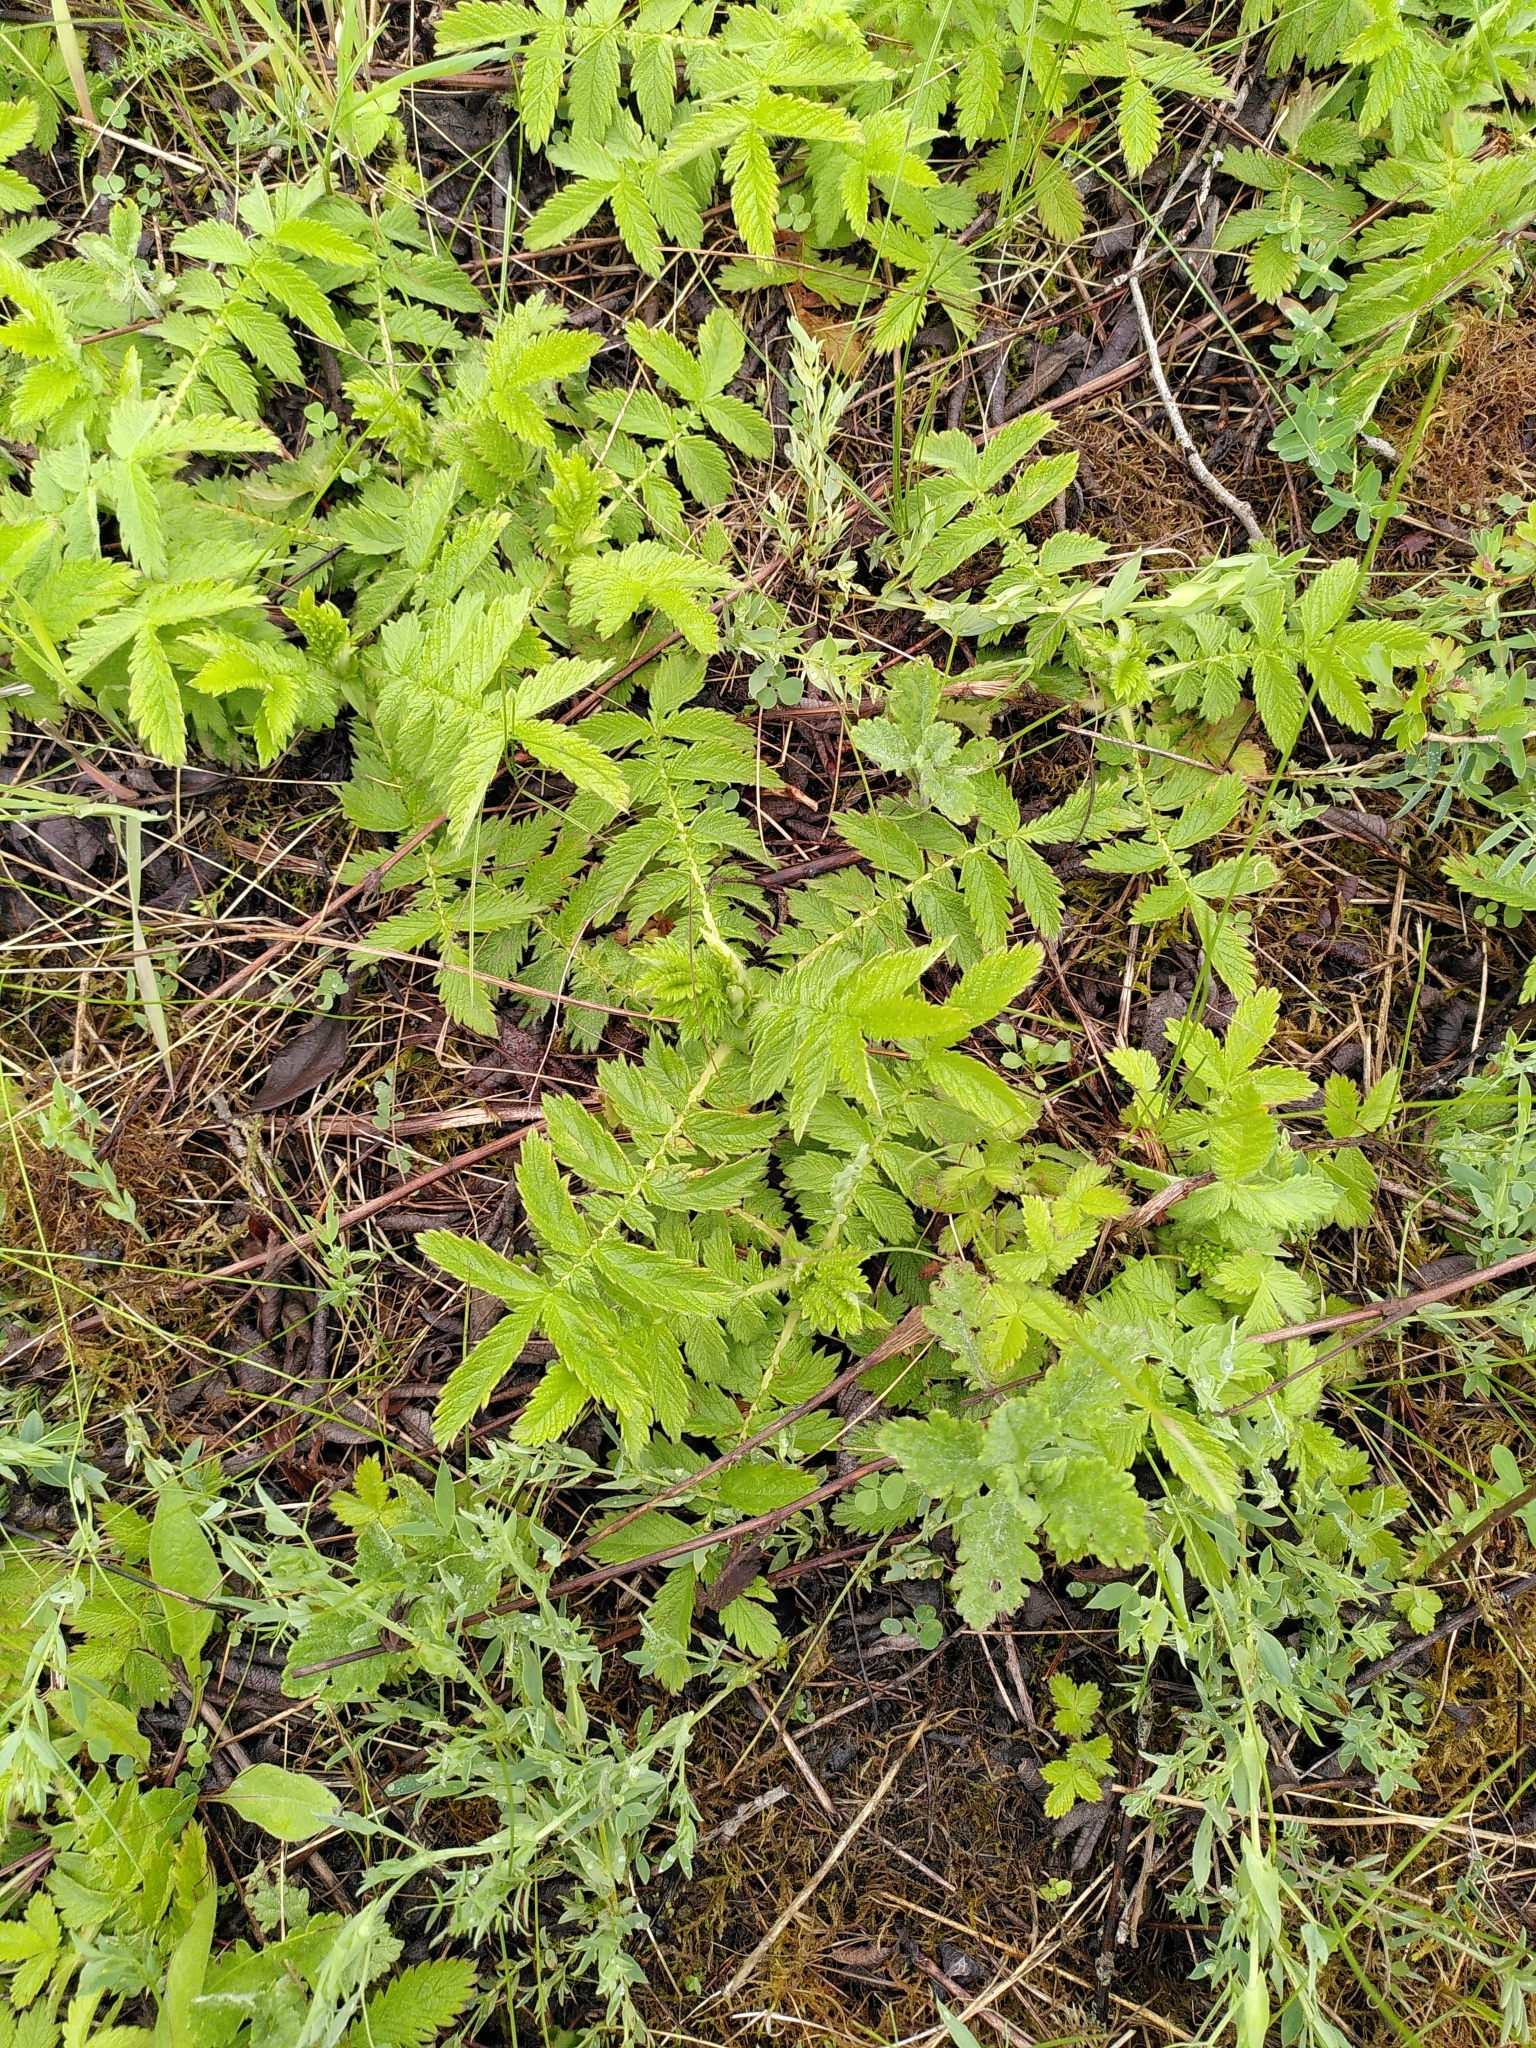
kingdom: Plantae
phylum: Tracheophyta
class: Magnoliopsida
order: Rosales
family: Rosaceae
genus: Agrimonia
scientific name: Agrimonia eupatoria
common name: Agrimony
